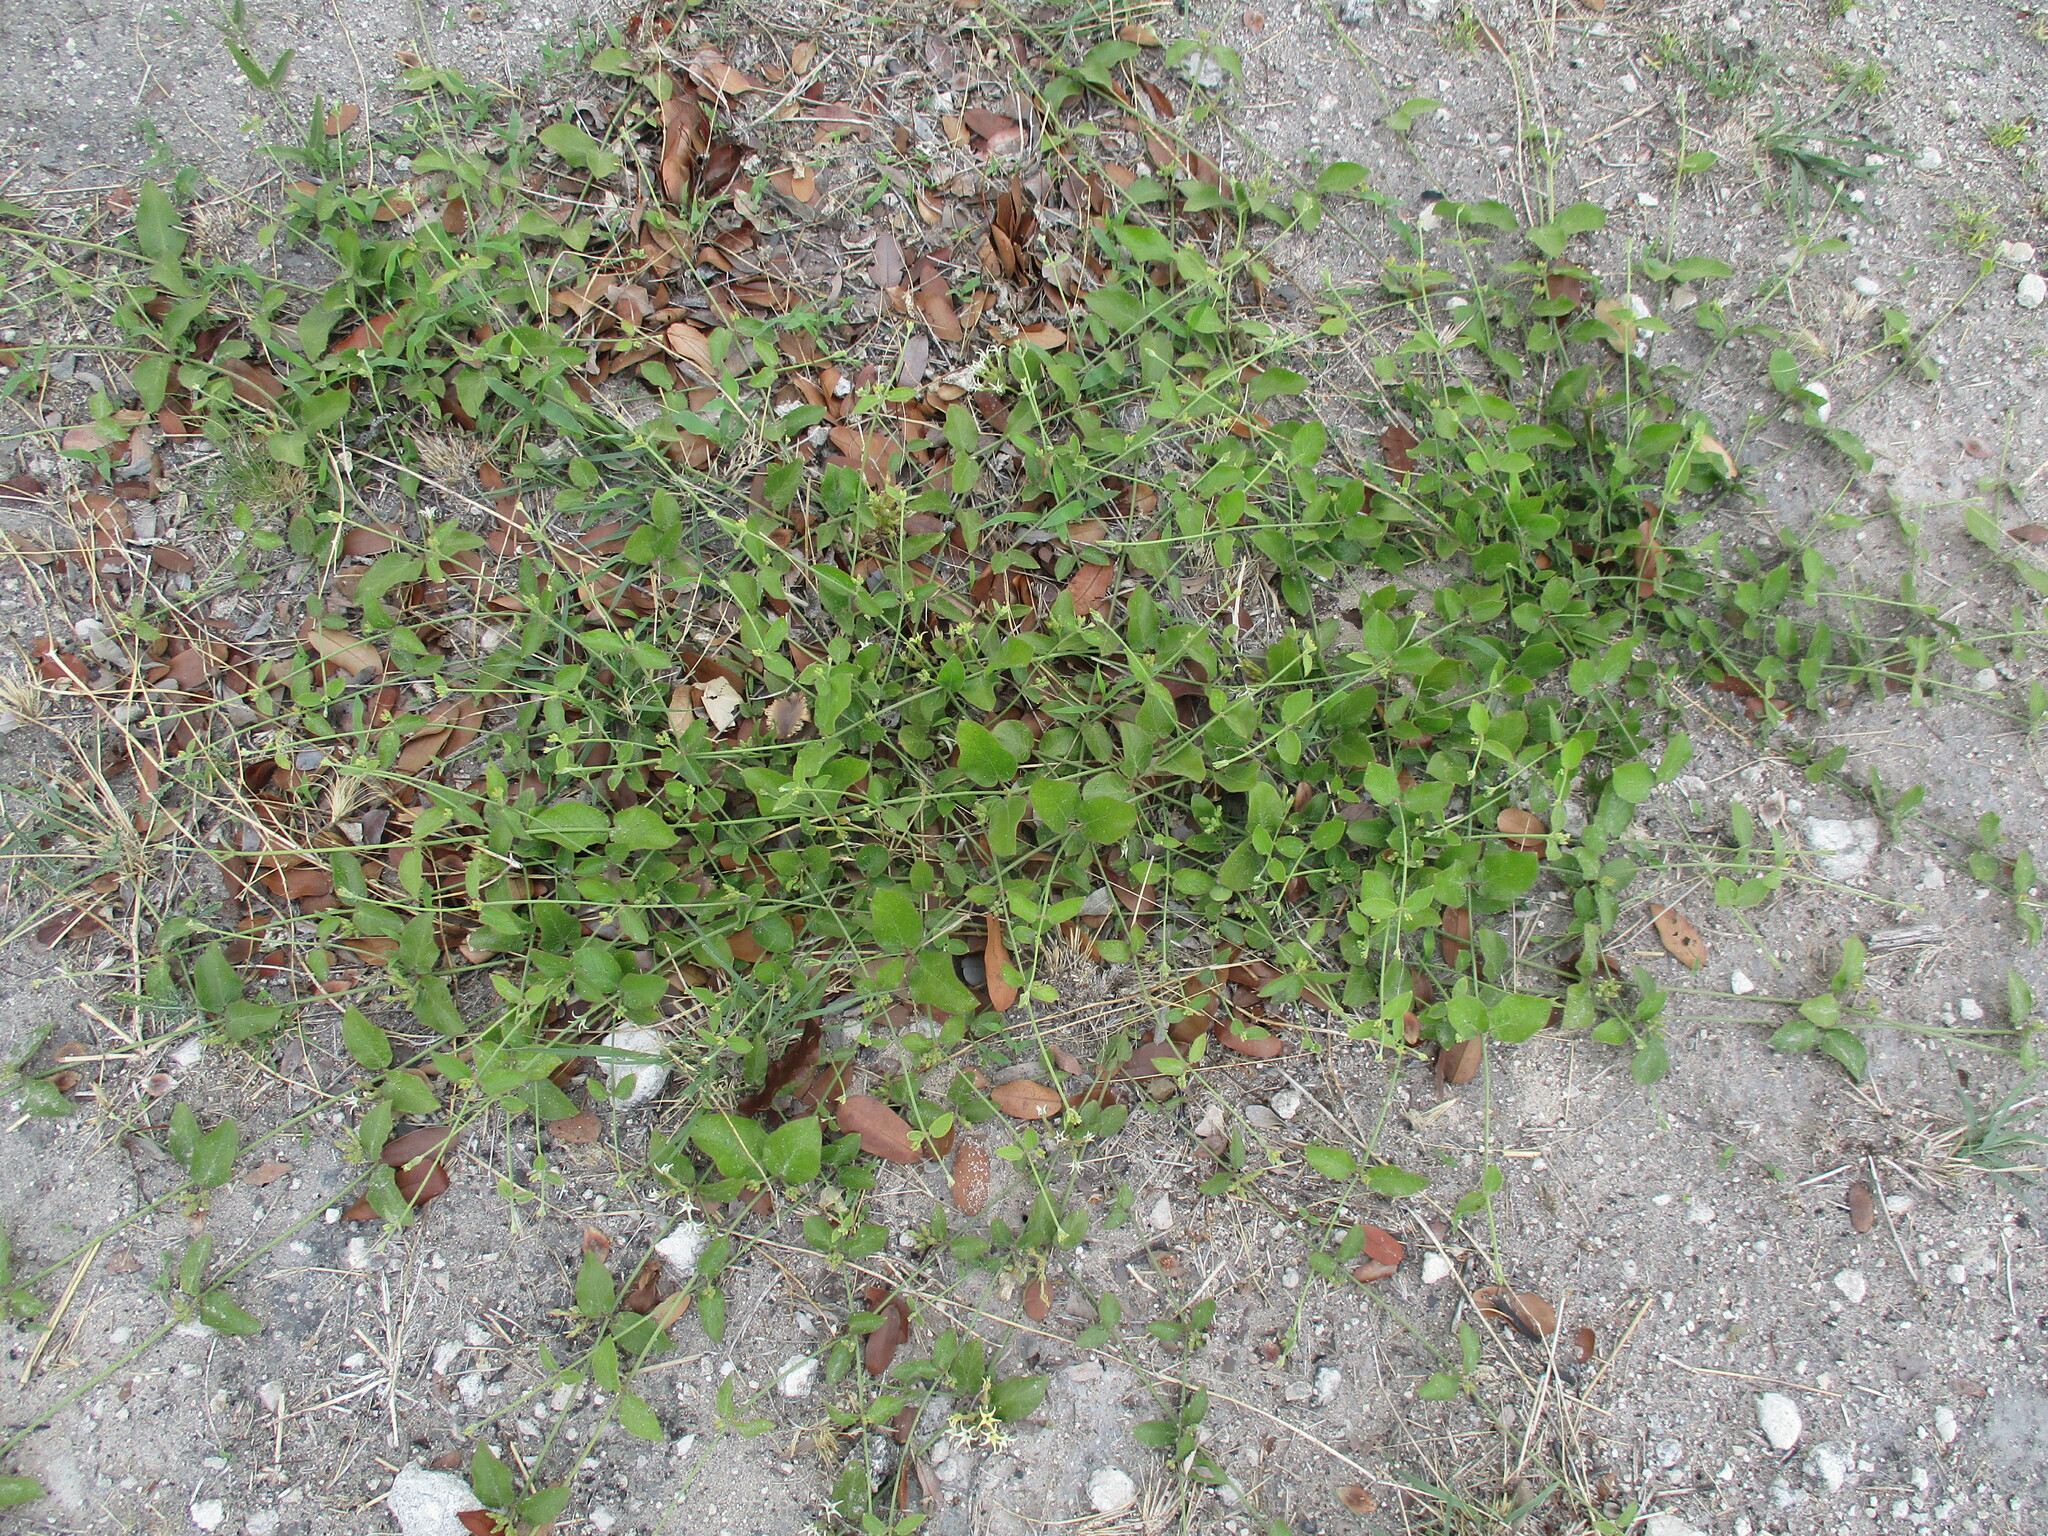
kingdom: Plantae
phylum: Tracheophyta
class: Magnoliopsida
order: Gentianales
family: Apocynaceae
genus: Orthanthera
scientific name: Orthanthera jasminiflora
